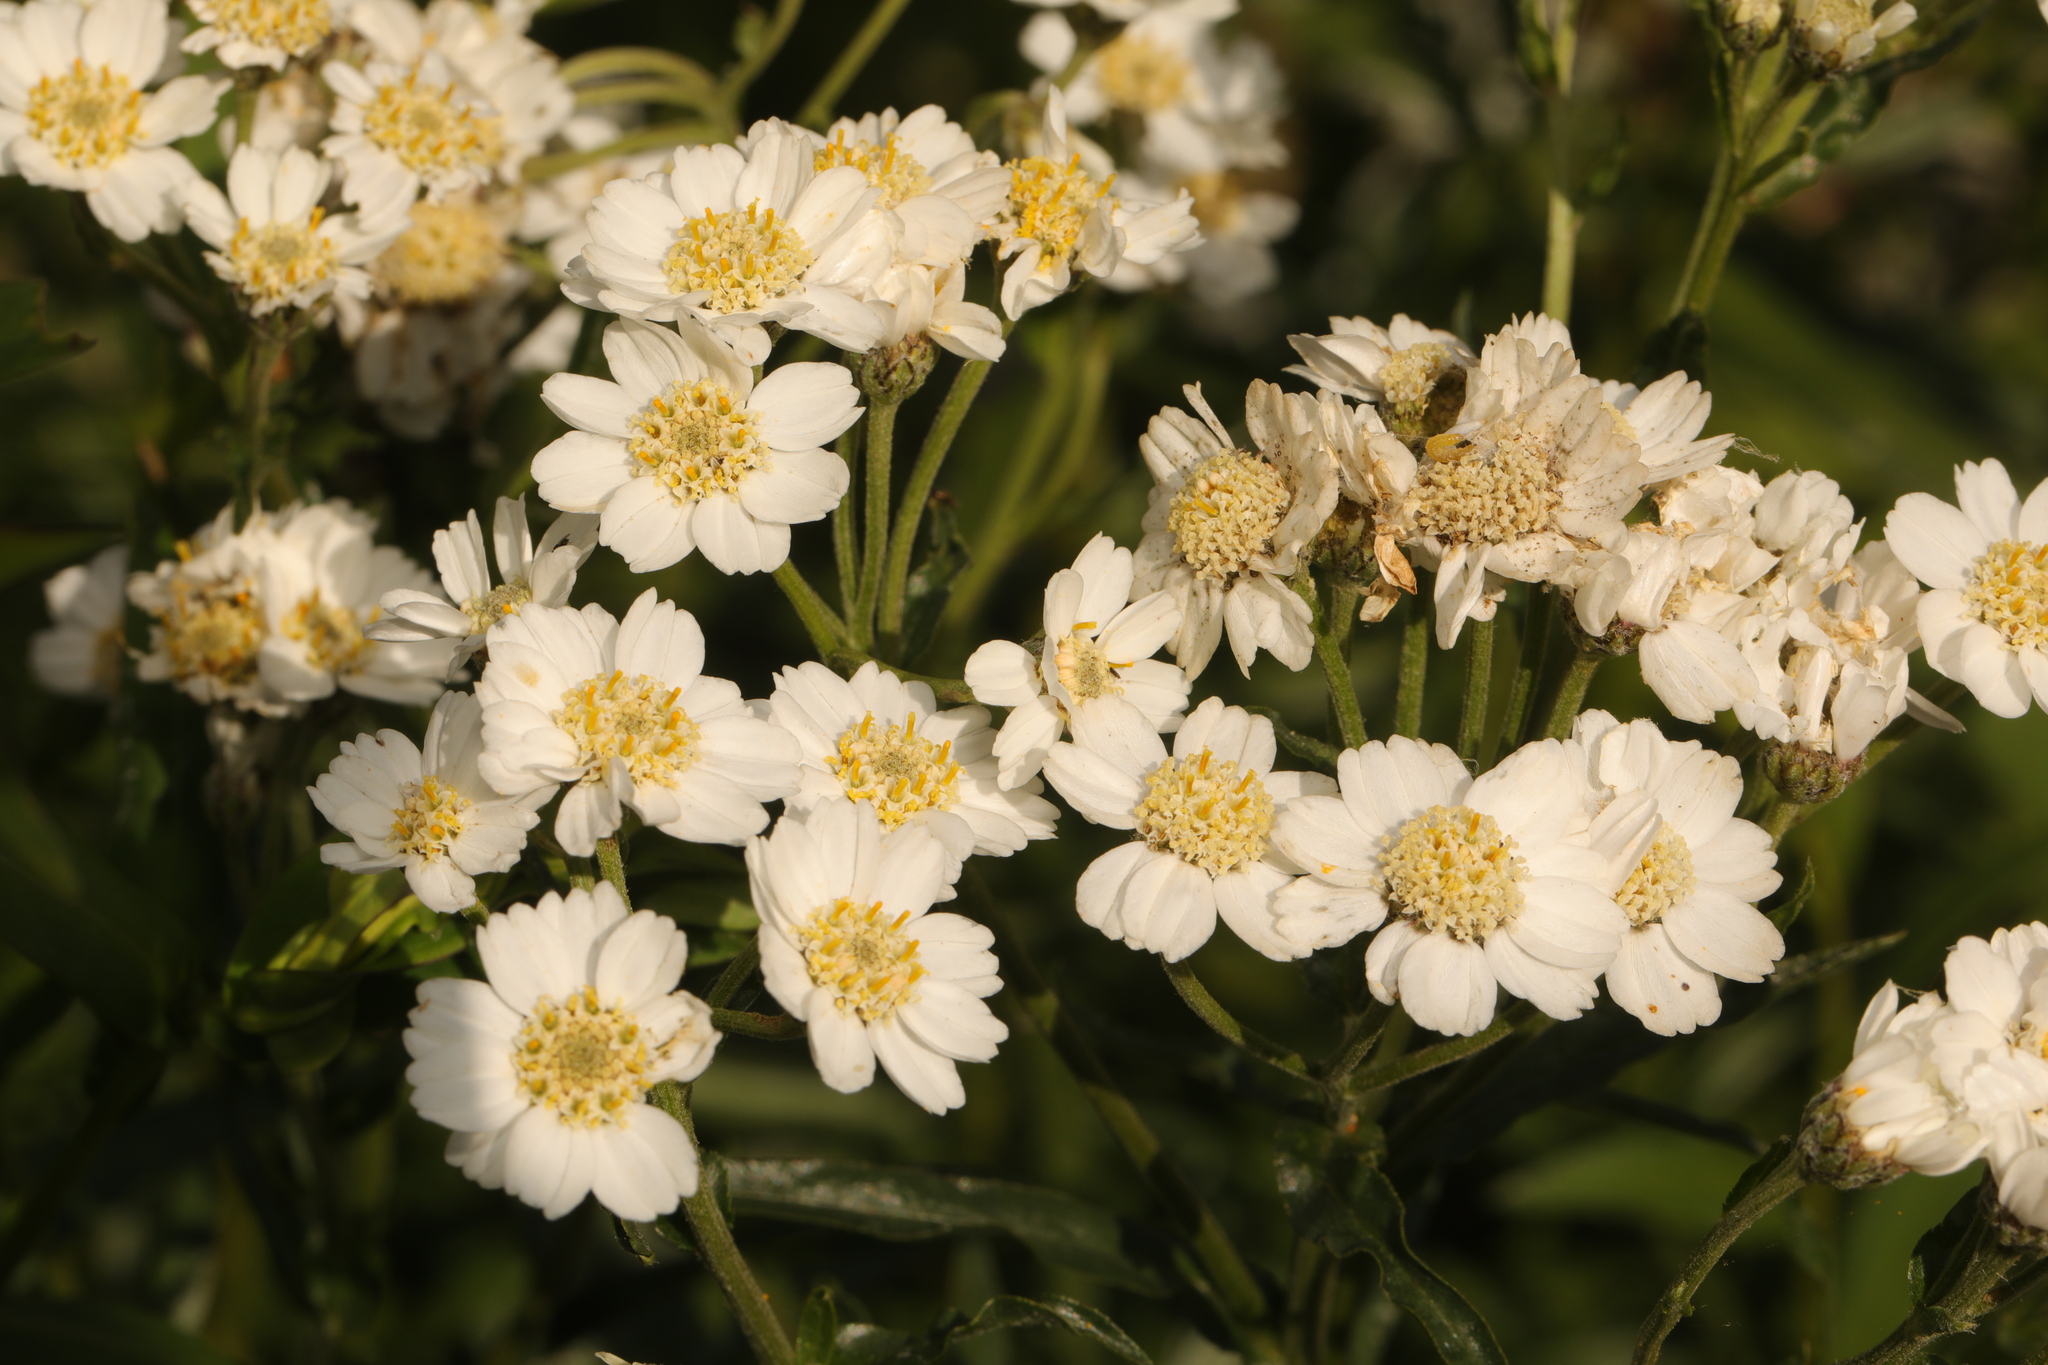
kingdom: Plantae
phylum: Tracheophyta
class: Magnoliopsida
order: Asterales
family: Asteraceae
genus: Achillea
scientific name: Achillea ptarmica
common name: Sneezeweed
